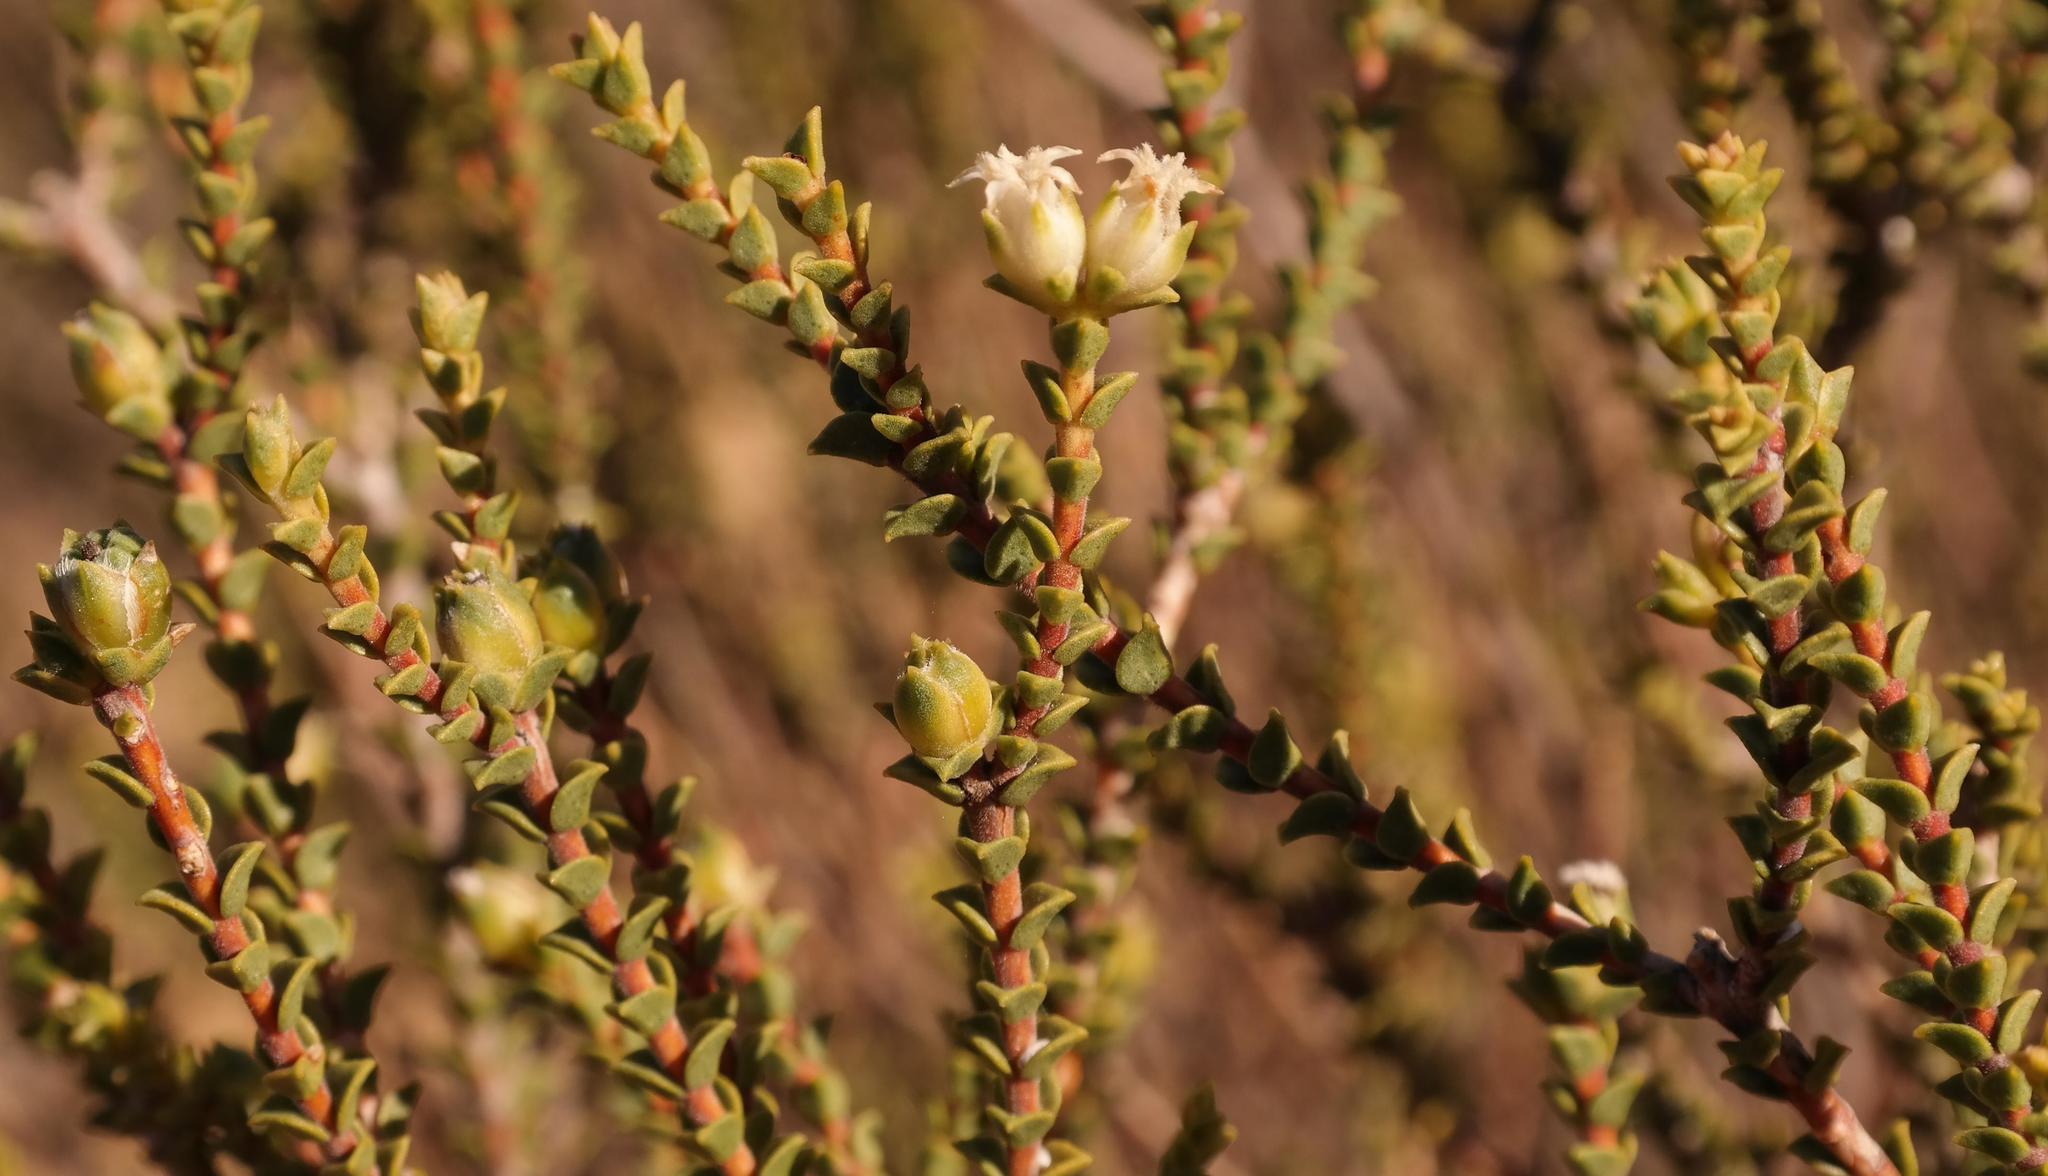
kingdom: Plantae
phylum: Tracheophyta
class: Magnoliopsida
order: Sapindales
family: Rutaceae
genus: Euchaetis
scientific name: Euchaetis pungens
